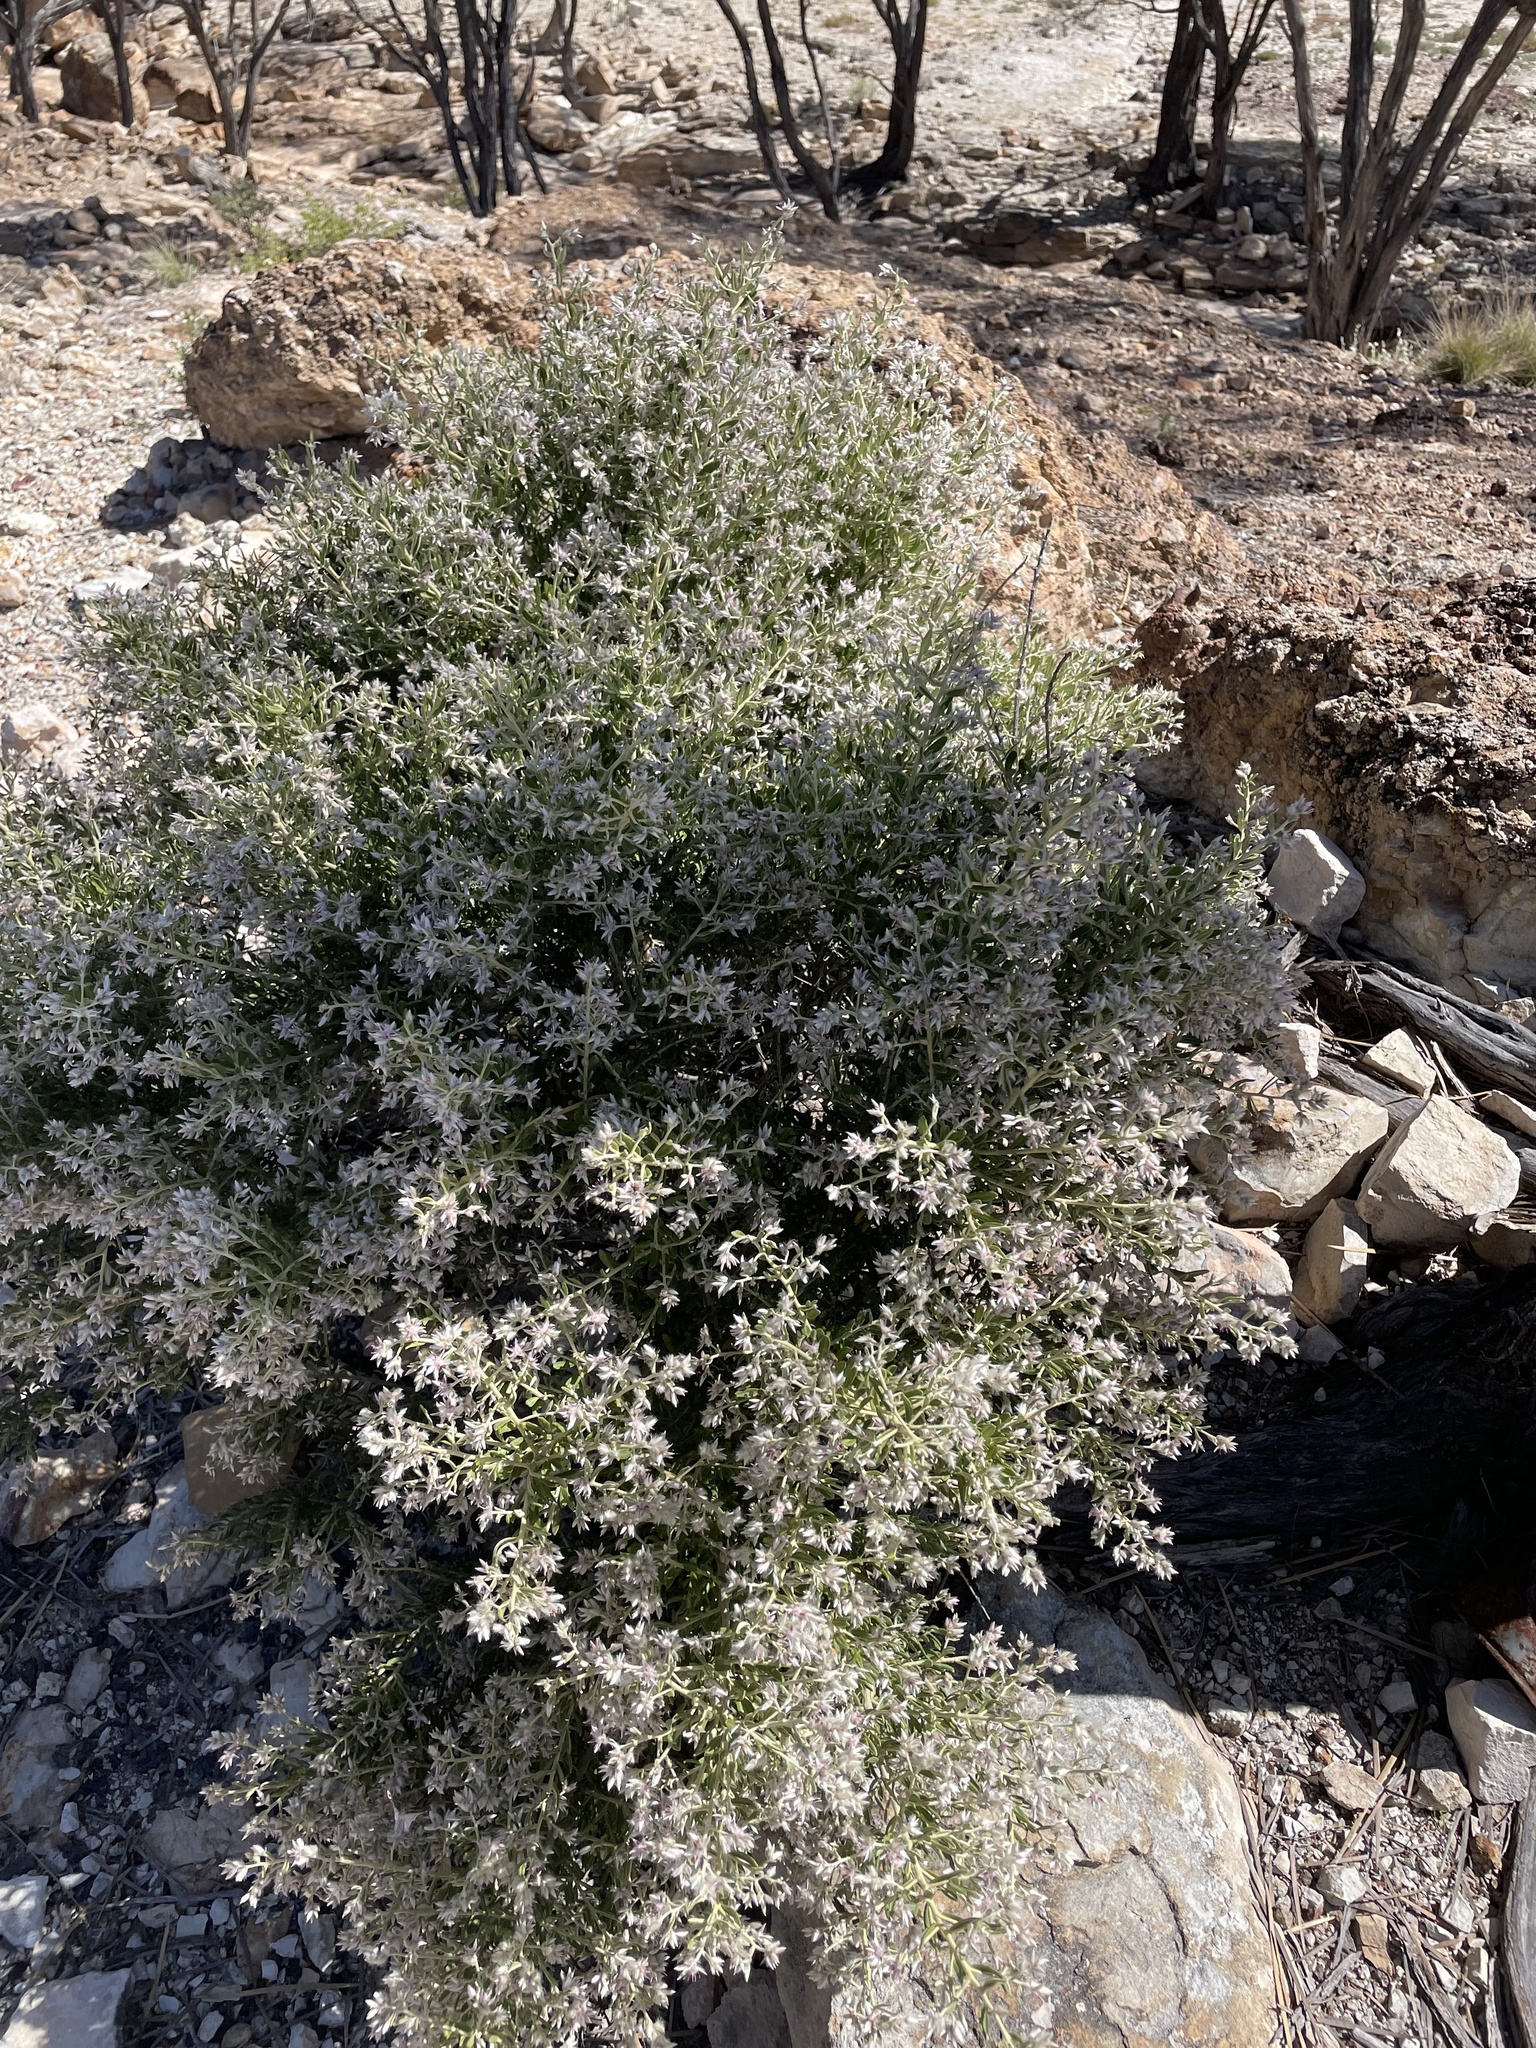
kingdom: Plantae
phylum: Tracheophyta
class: Magnoliopsida
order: Caryophyllales
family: Amaranthaceae
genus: Ptilotus
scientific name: Ptilotus pedleyanus
